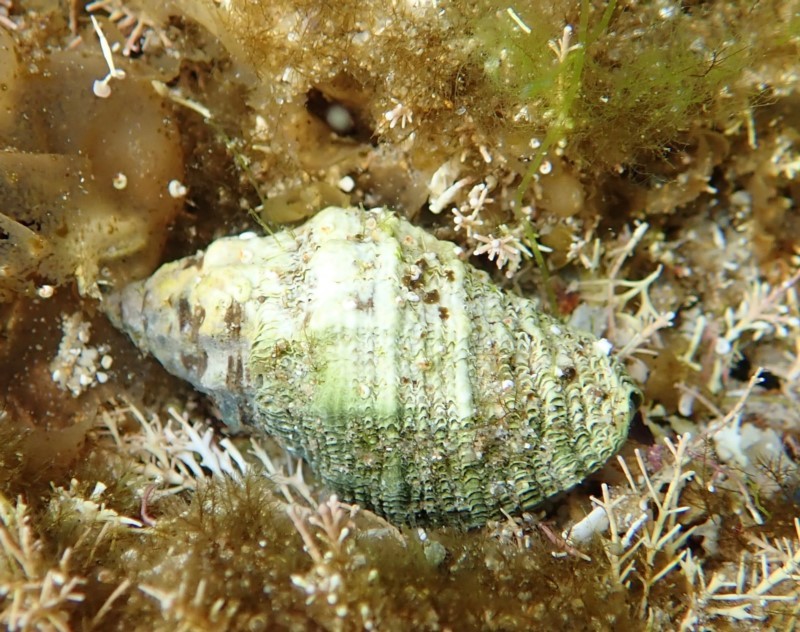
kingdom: Animalia
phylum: Mollusca
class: Gastropoda
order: Neogastropoda
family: Muricidae
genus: Cronia
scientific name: Cronia aurantiaca
